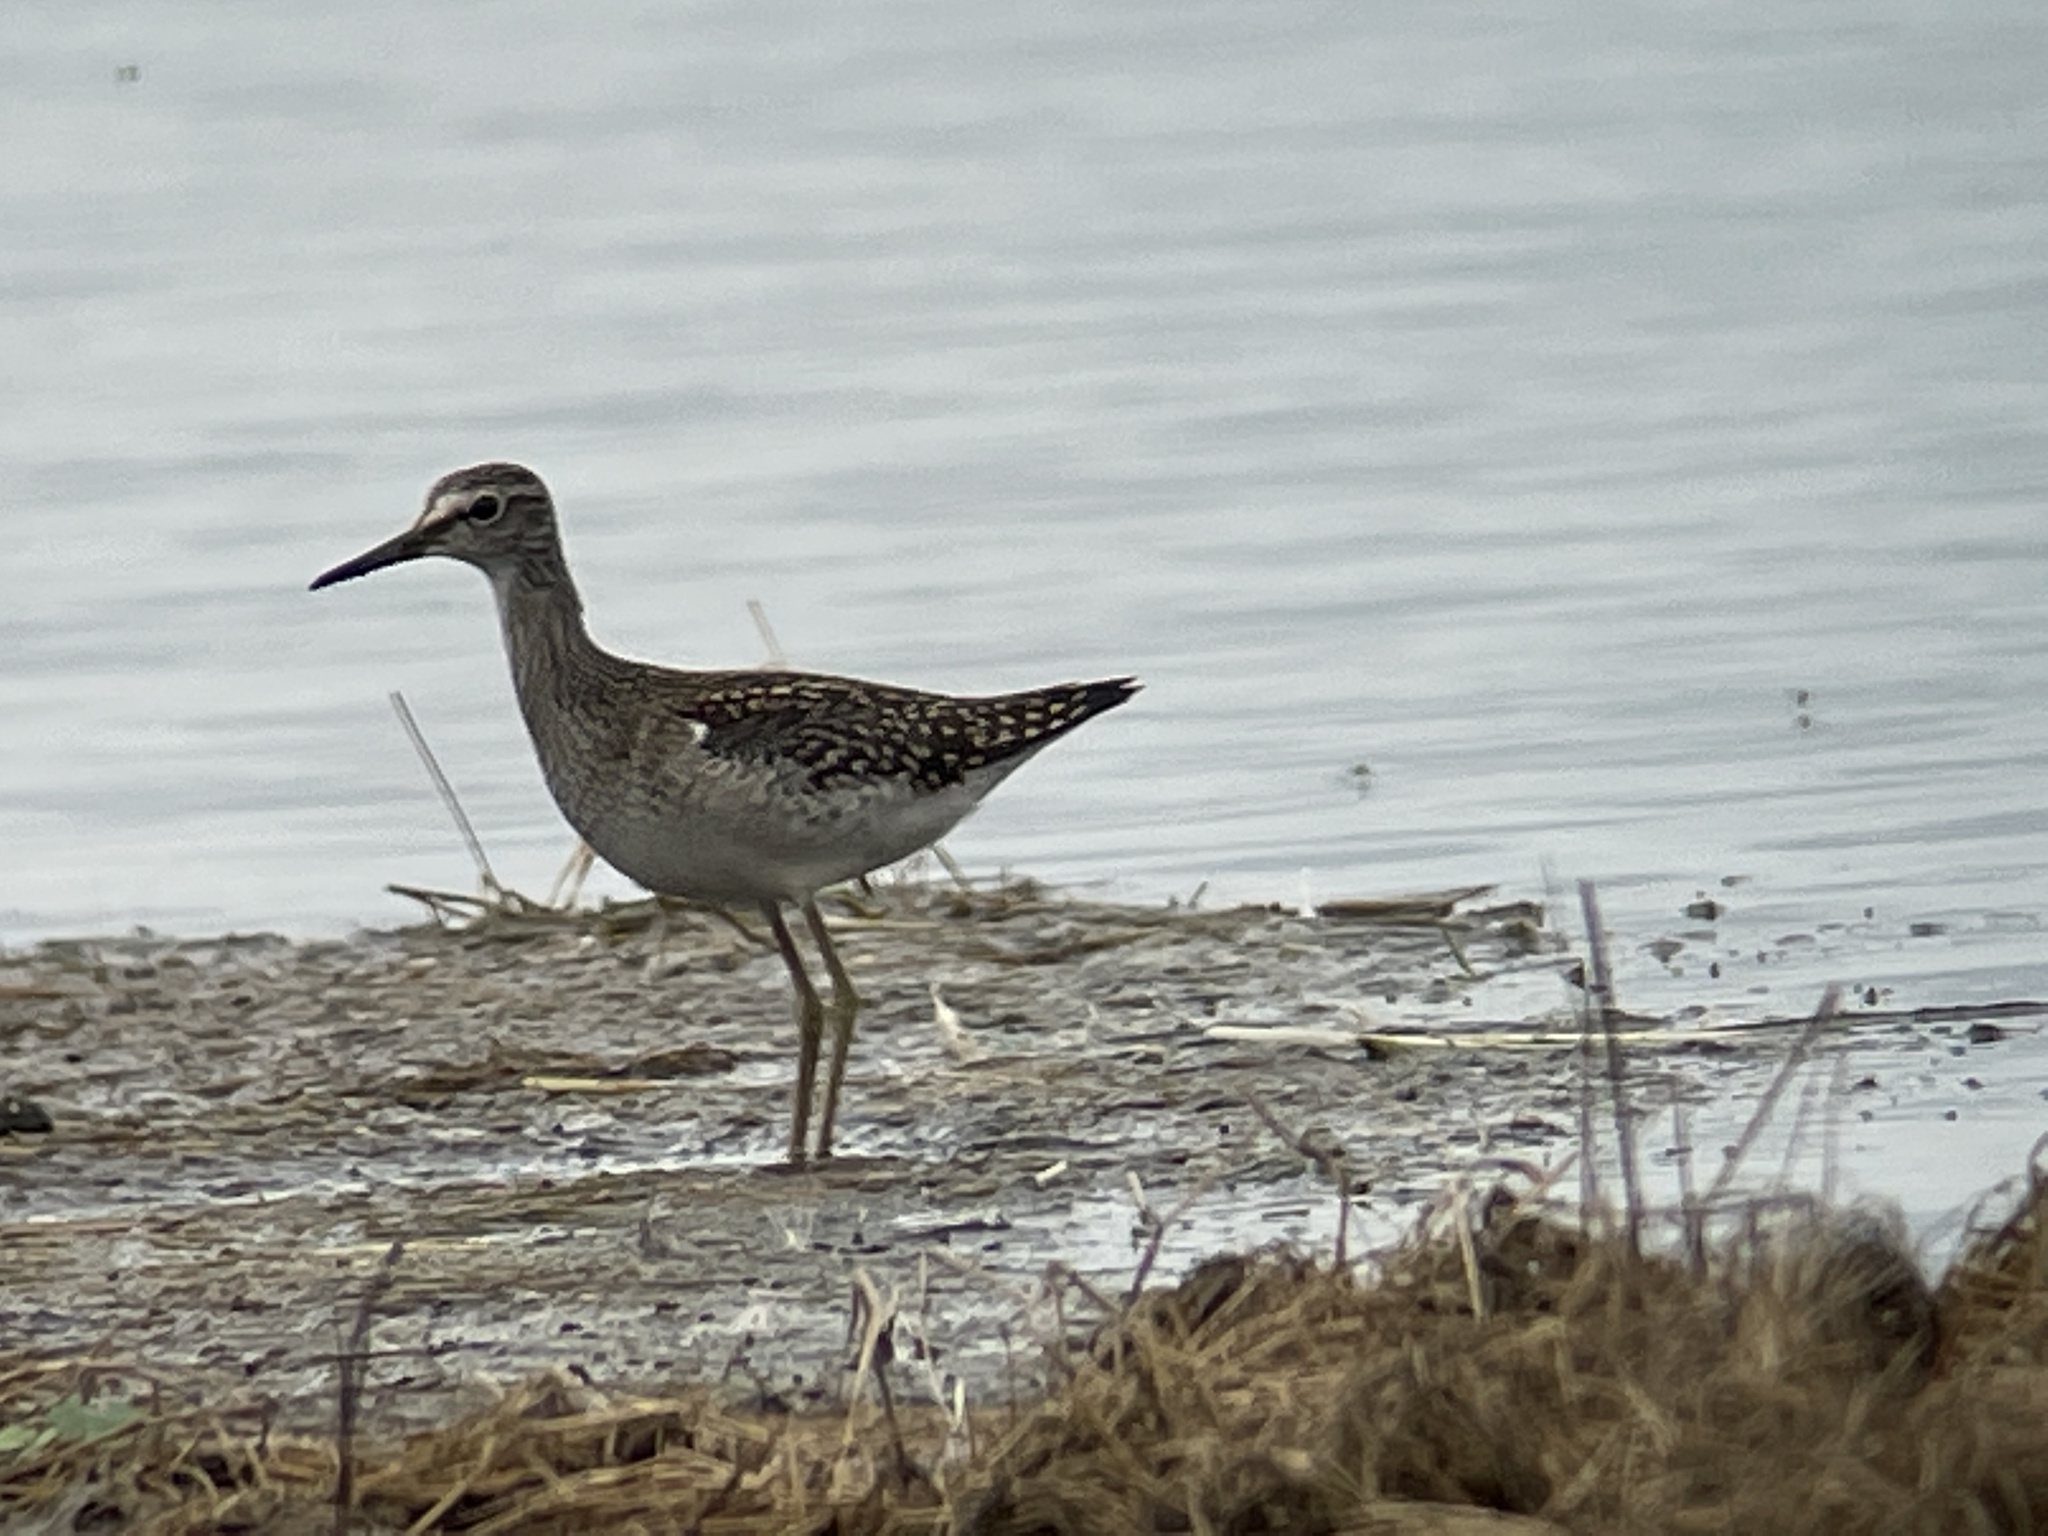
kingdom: Animalia
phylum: Chordata
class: Aves
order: Charadriiformes
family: Scolopacidae
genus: Tringa
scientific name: Tringa glareola
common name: Wood sandpiper
